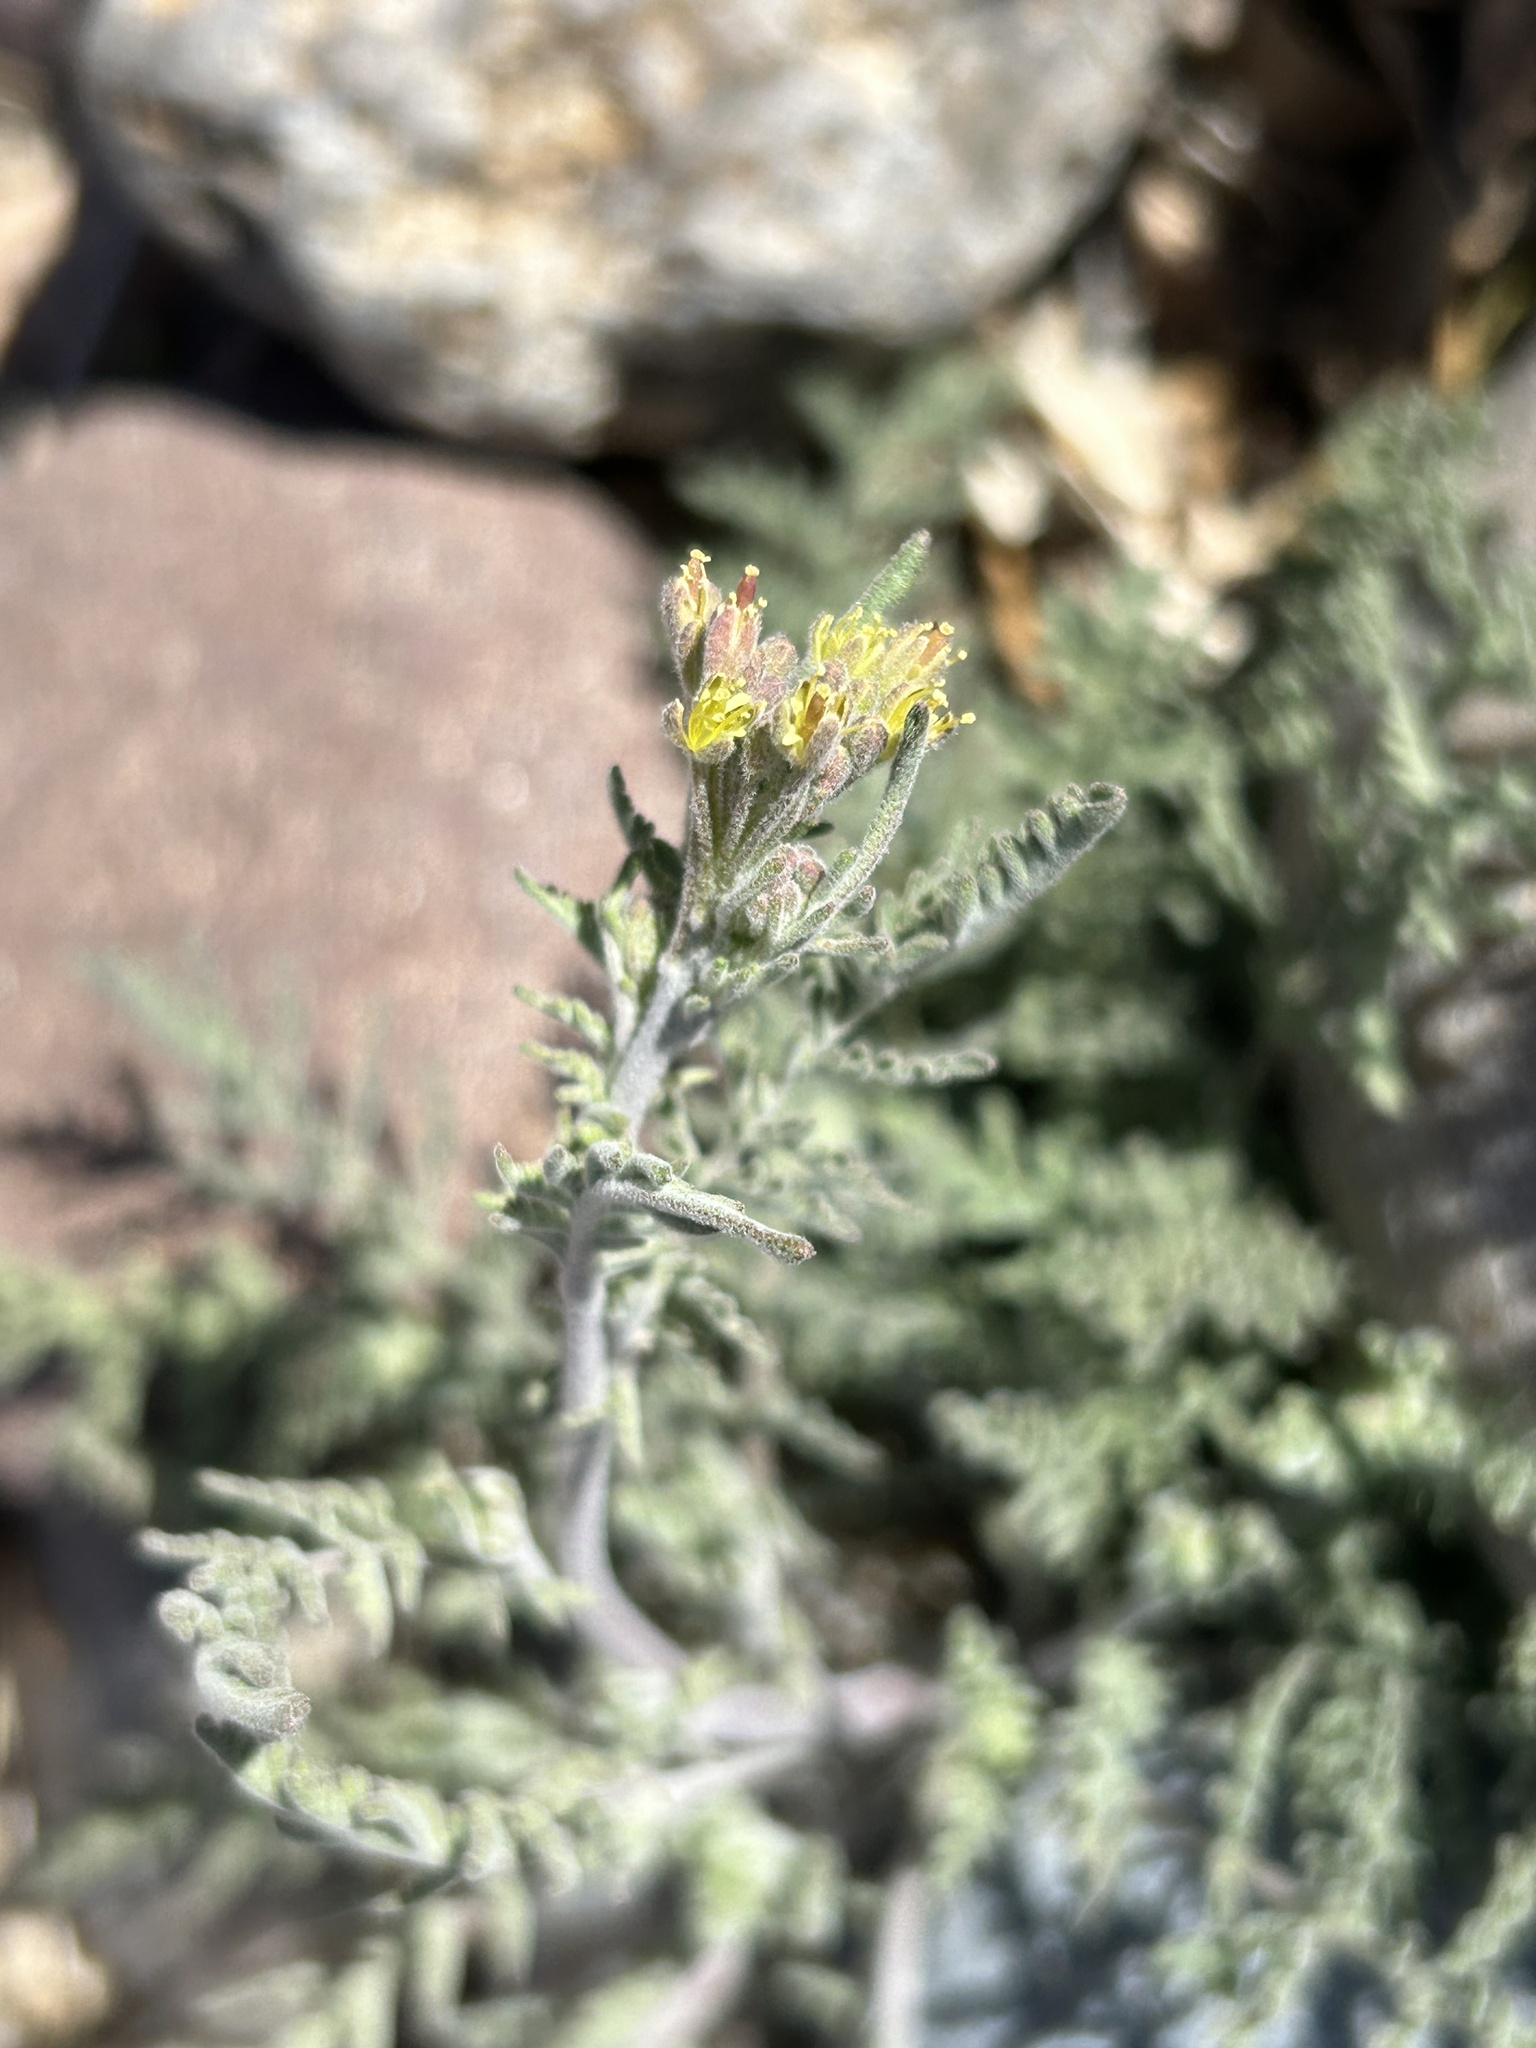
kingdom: Plantae
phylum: Tracheophyta
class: Magnoliopsida
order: Brassicales
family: Brassicaceae
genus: Descurainia
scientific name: Descurainia pinnata
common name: Western tansy mustard
